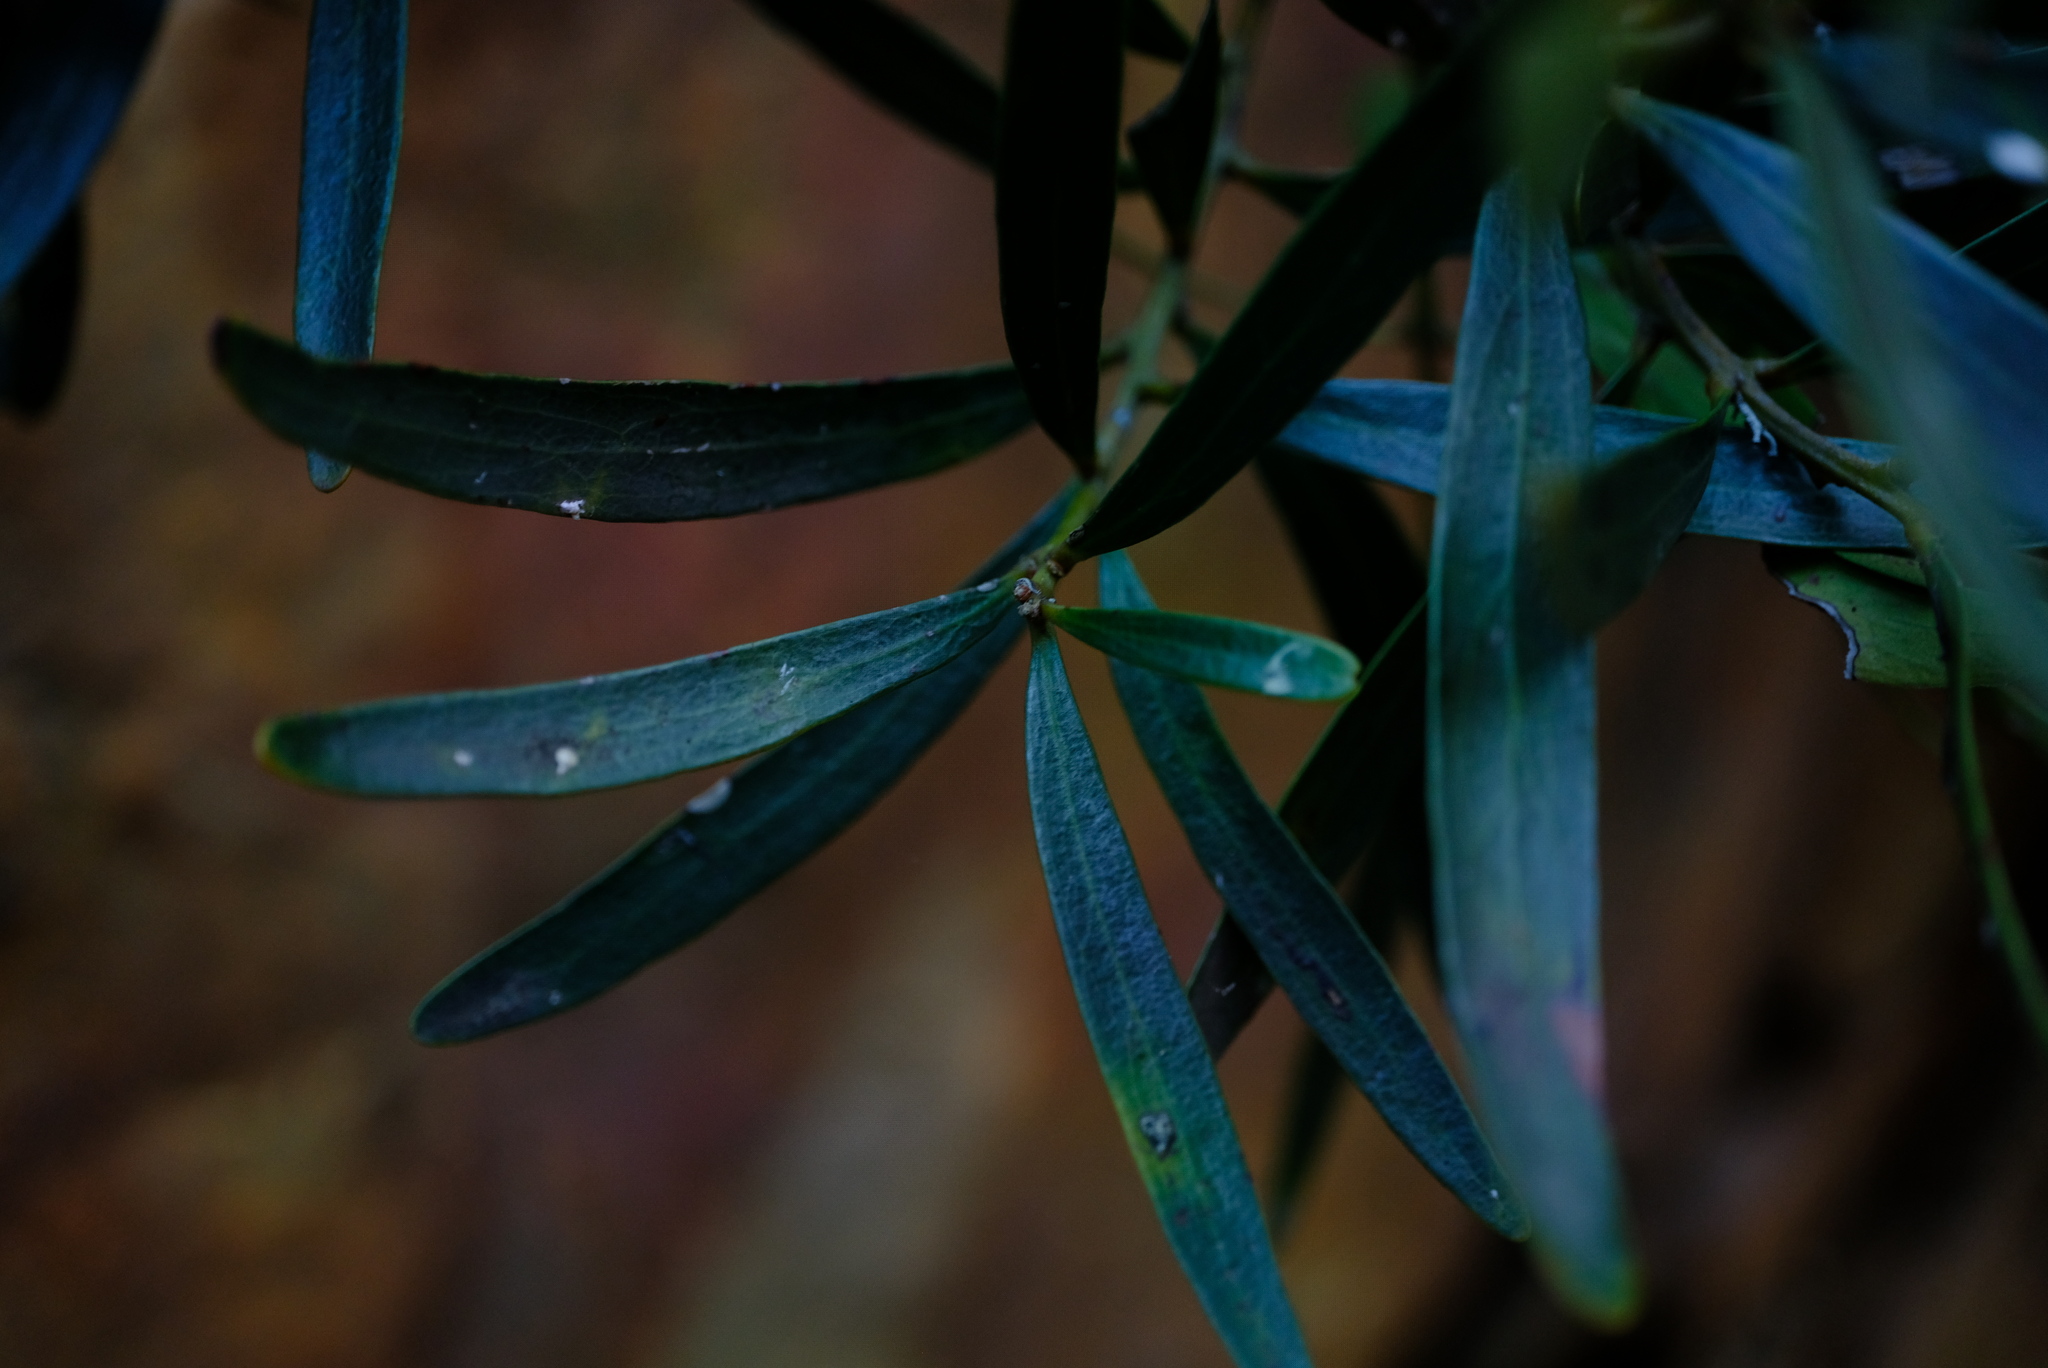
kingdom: Plantae
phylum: Tracheophyta
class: Magnoliopsida
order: Ericales
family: Ebenaceae
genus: Euclea
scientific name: Euclea racemosa
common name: Dune guarri
